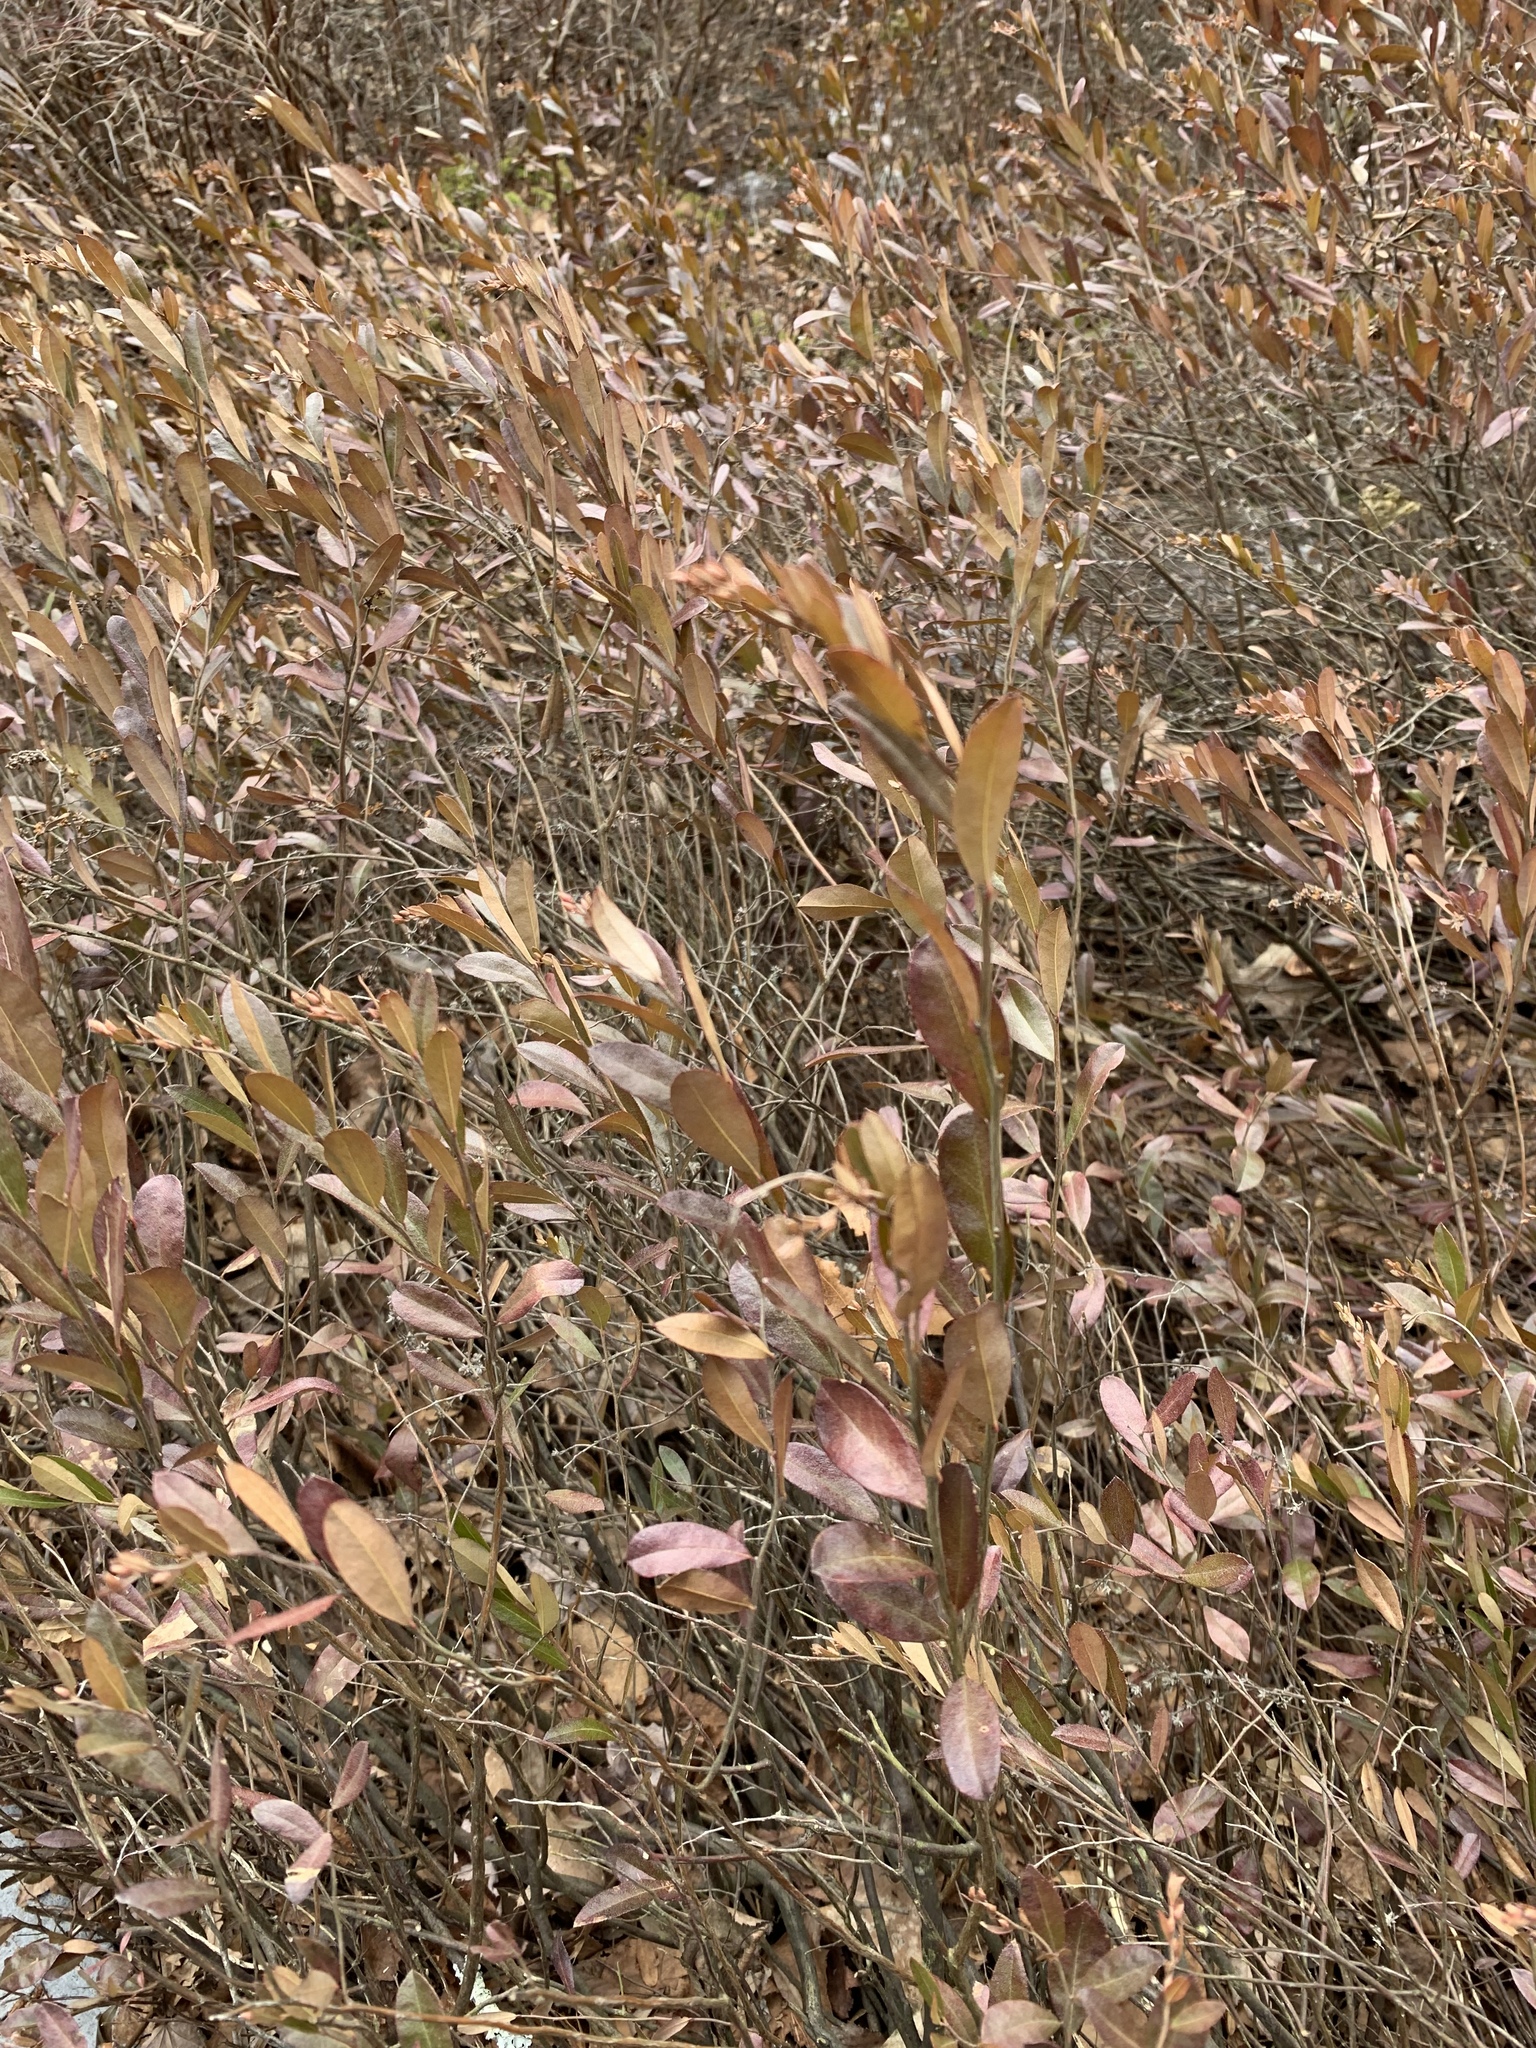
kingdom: Plantae
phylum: Tracheophyta
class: Magnoliopsida
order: Ericales
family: Ericaceae
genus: Chamaedaphne
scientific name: Chamaedaphne calyculata
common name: Leatherleaf
